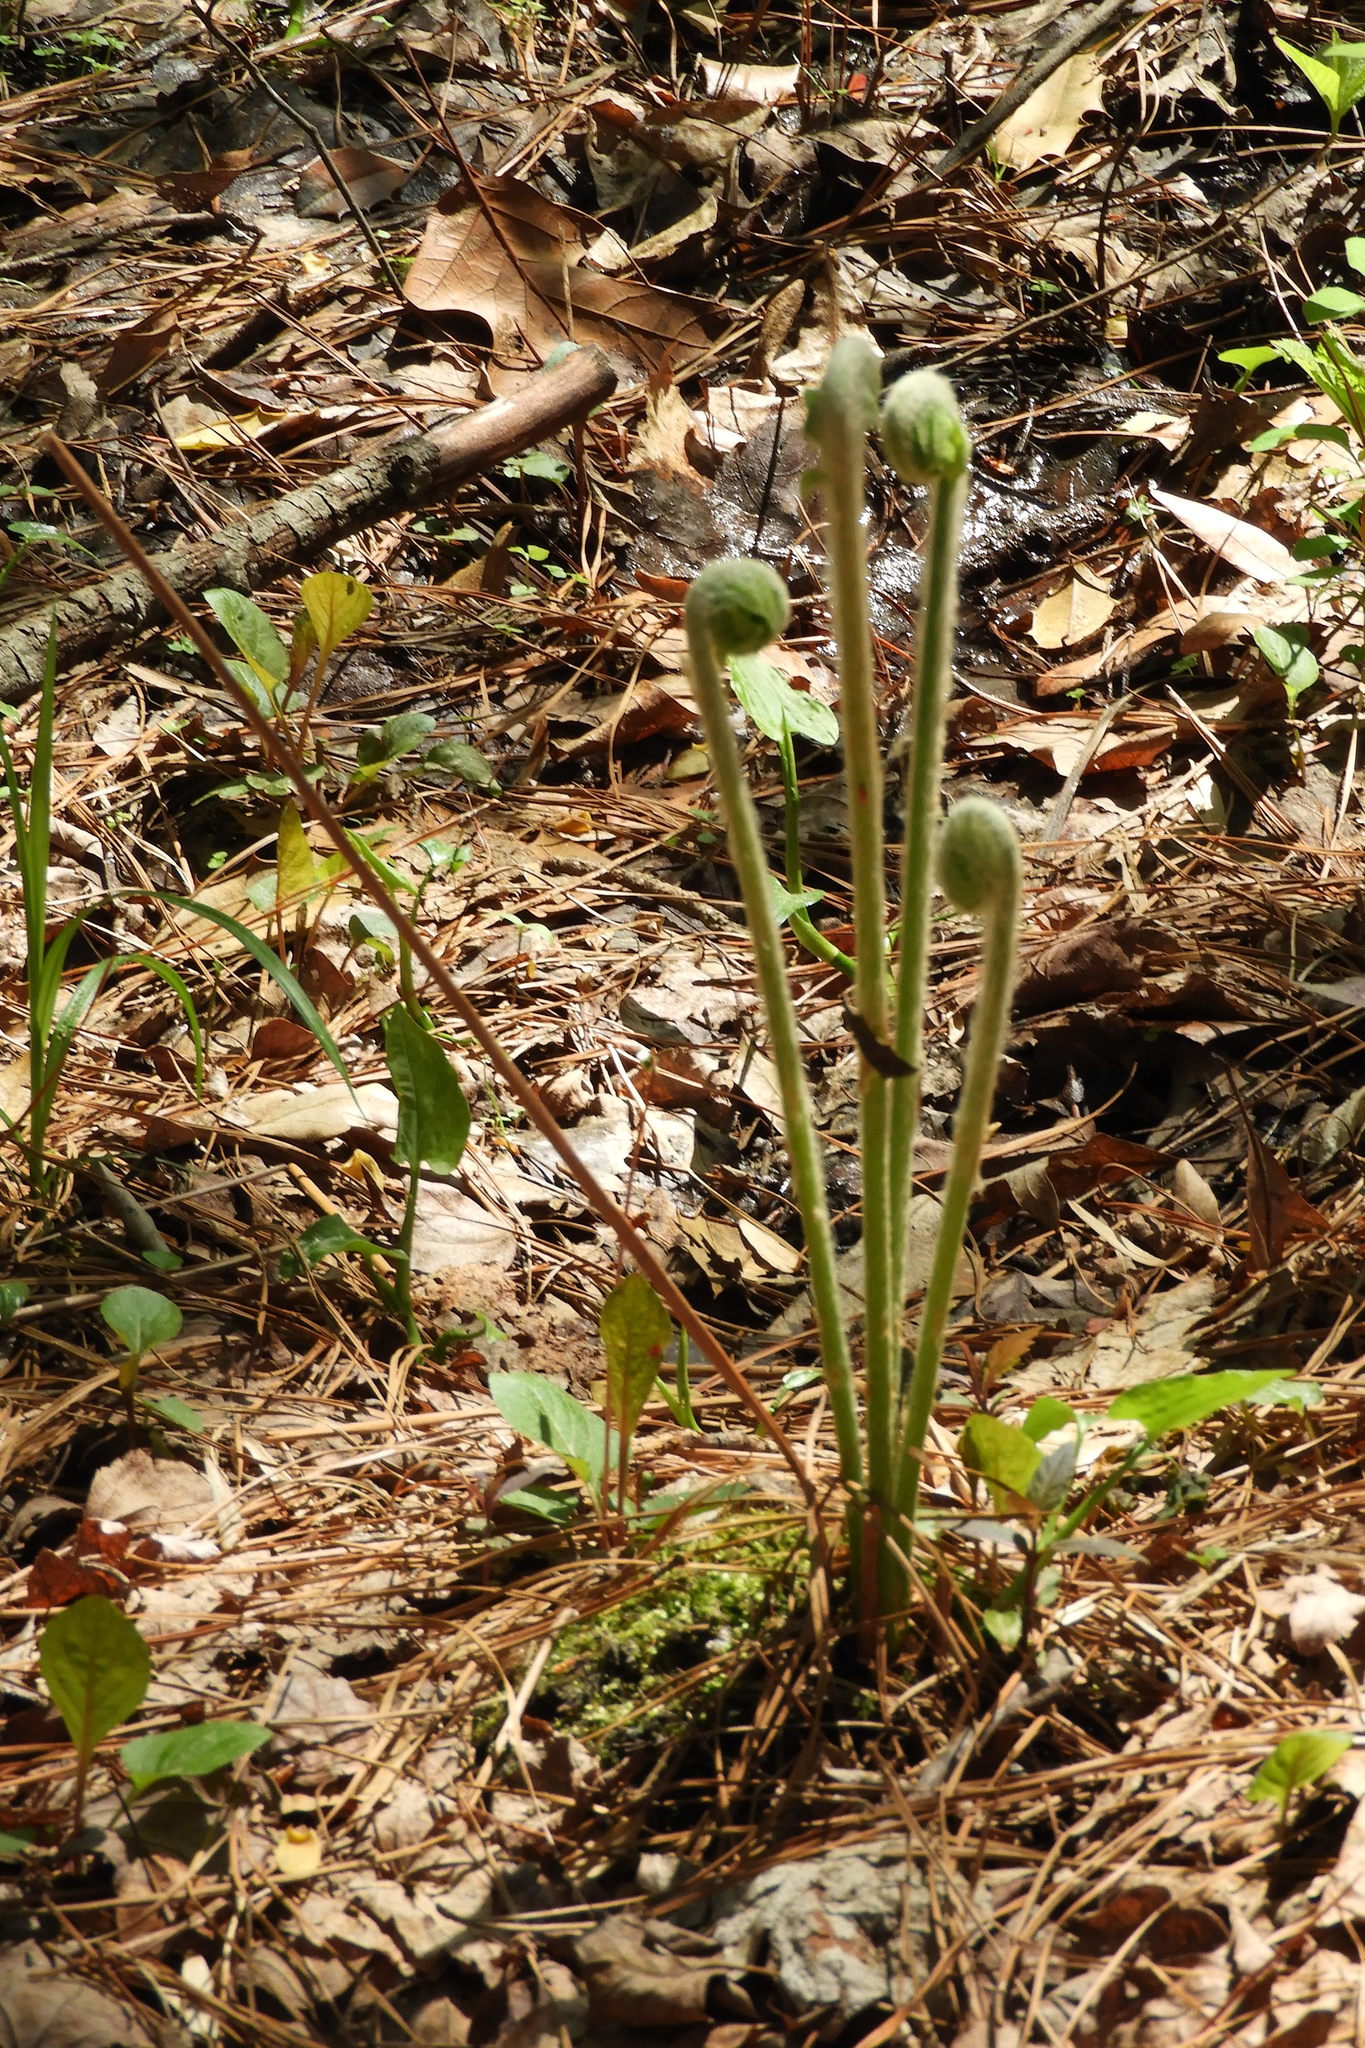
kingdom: Plantae
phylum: Tracheophyta
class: Polypodiopsida
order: Osmundales
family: Osmundaceae
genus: Osmundastrum
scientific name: Osmundastrum cinnamomeum
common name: Cinnamon fern
